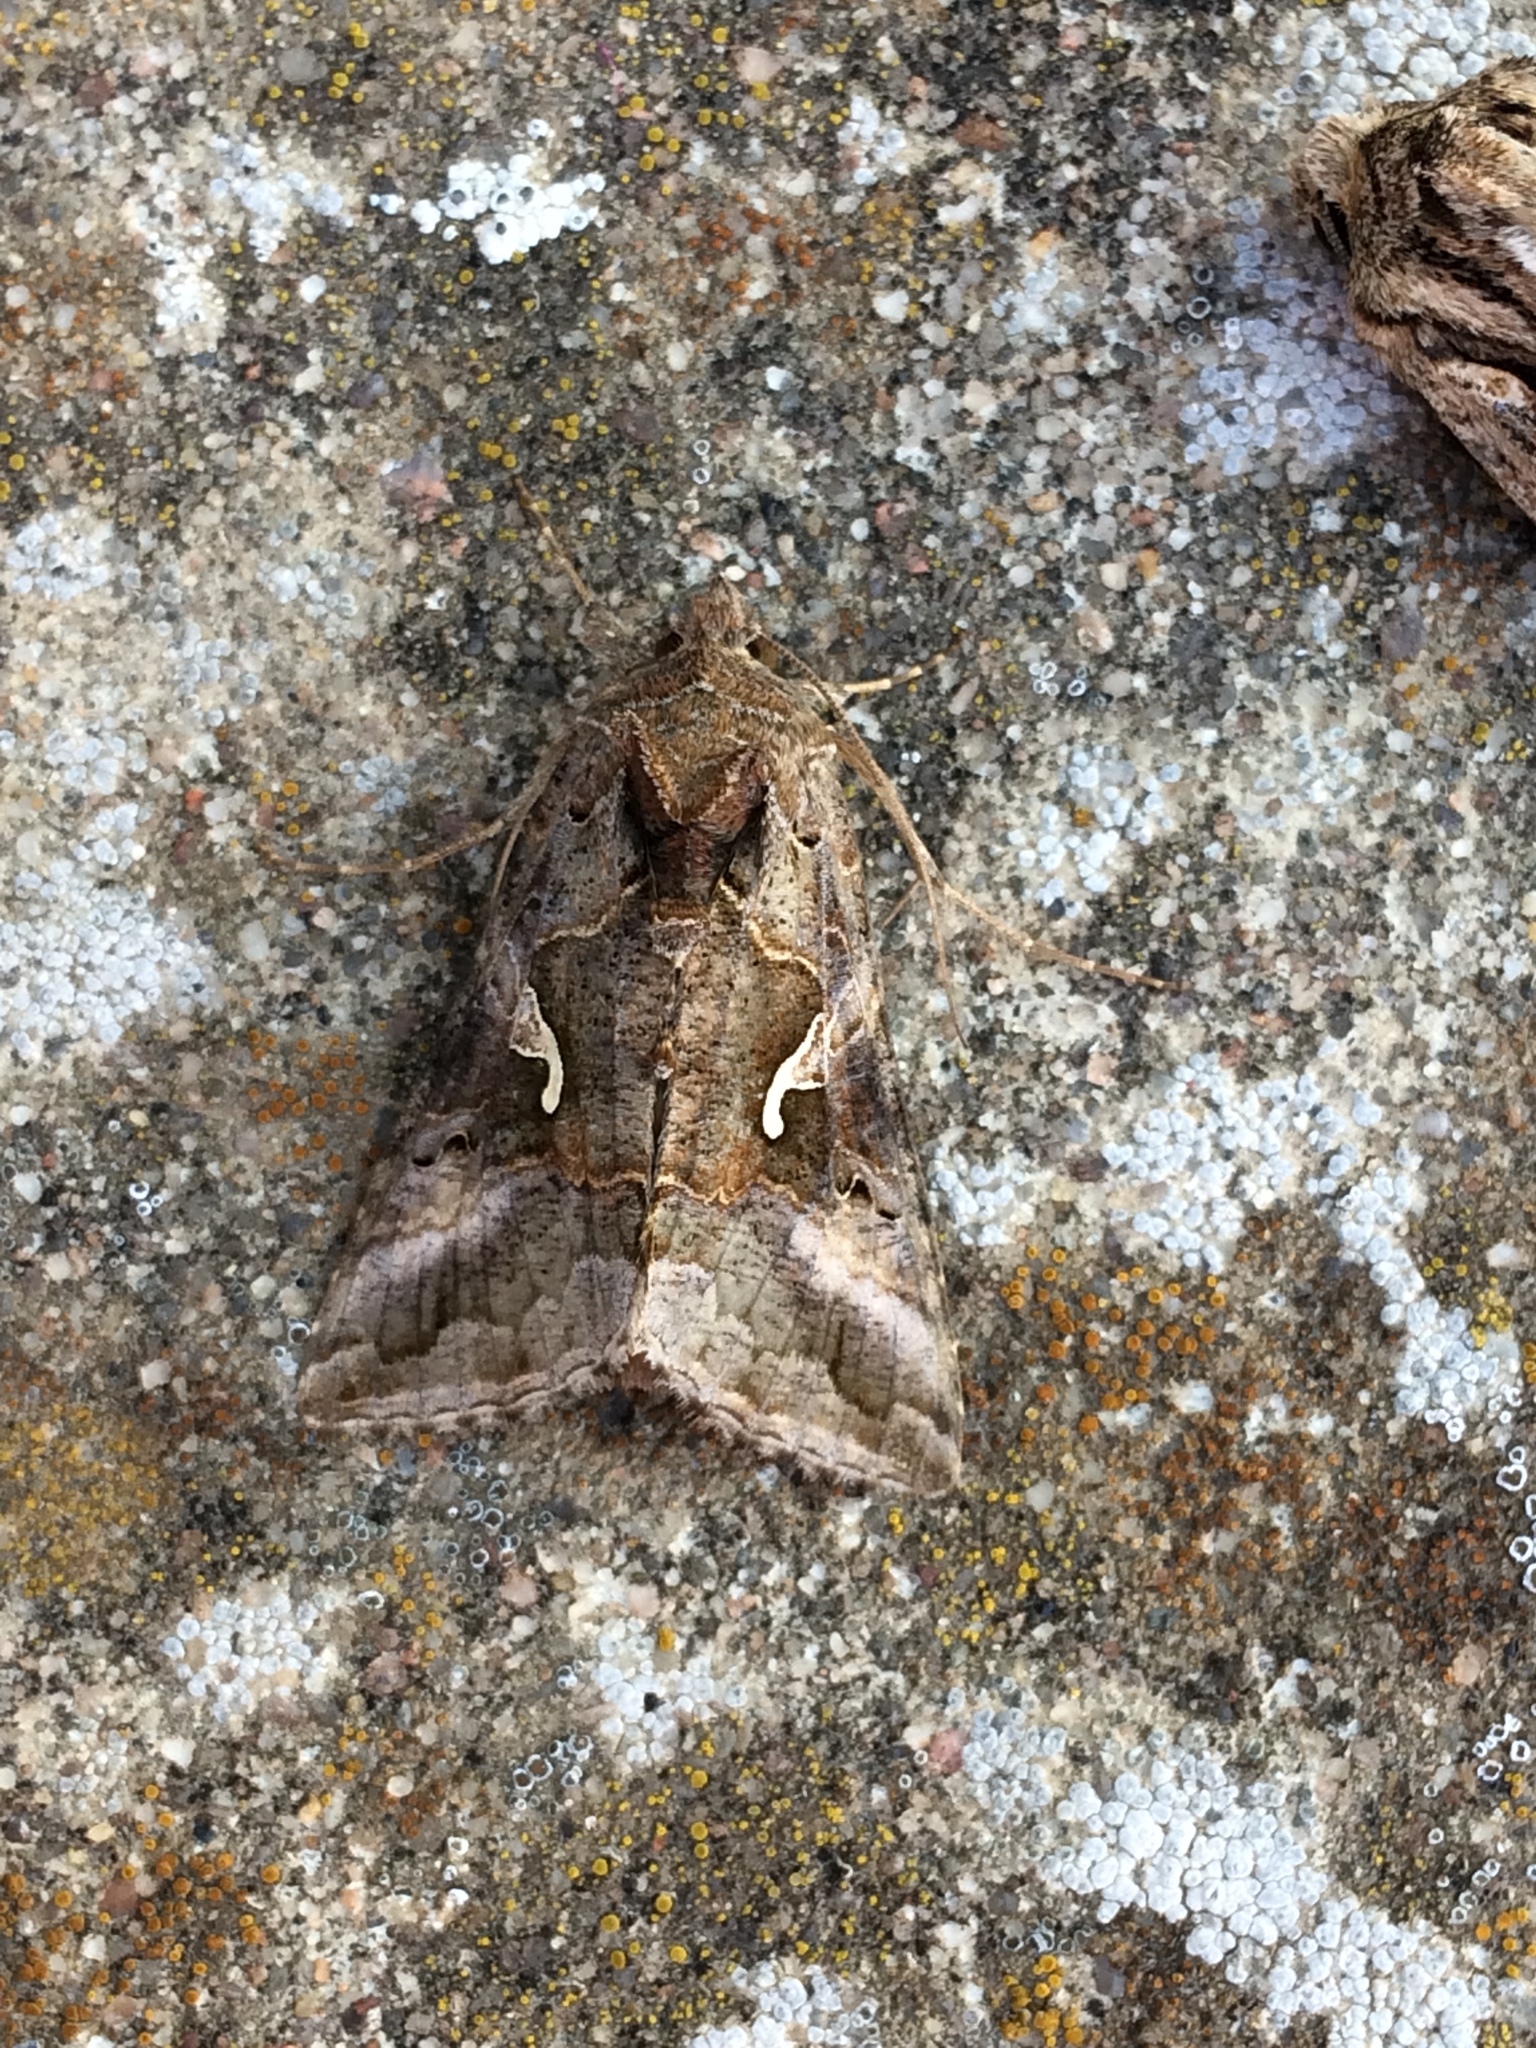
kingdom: Animalia
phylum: Arthropoda
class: Insecta
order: Lepidoptera
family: Noctuidae
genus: Autographa
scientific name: Autographa gamma
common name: Silver y
